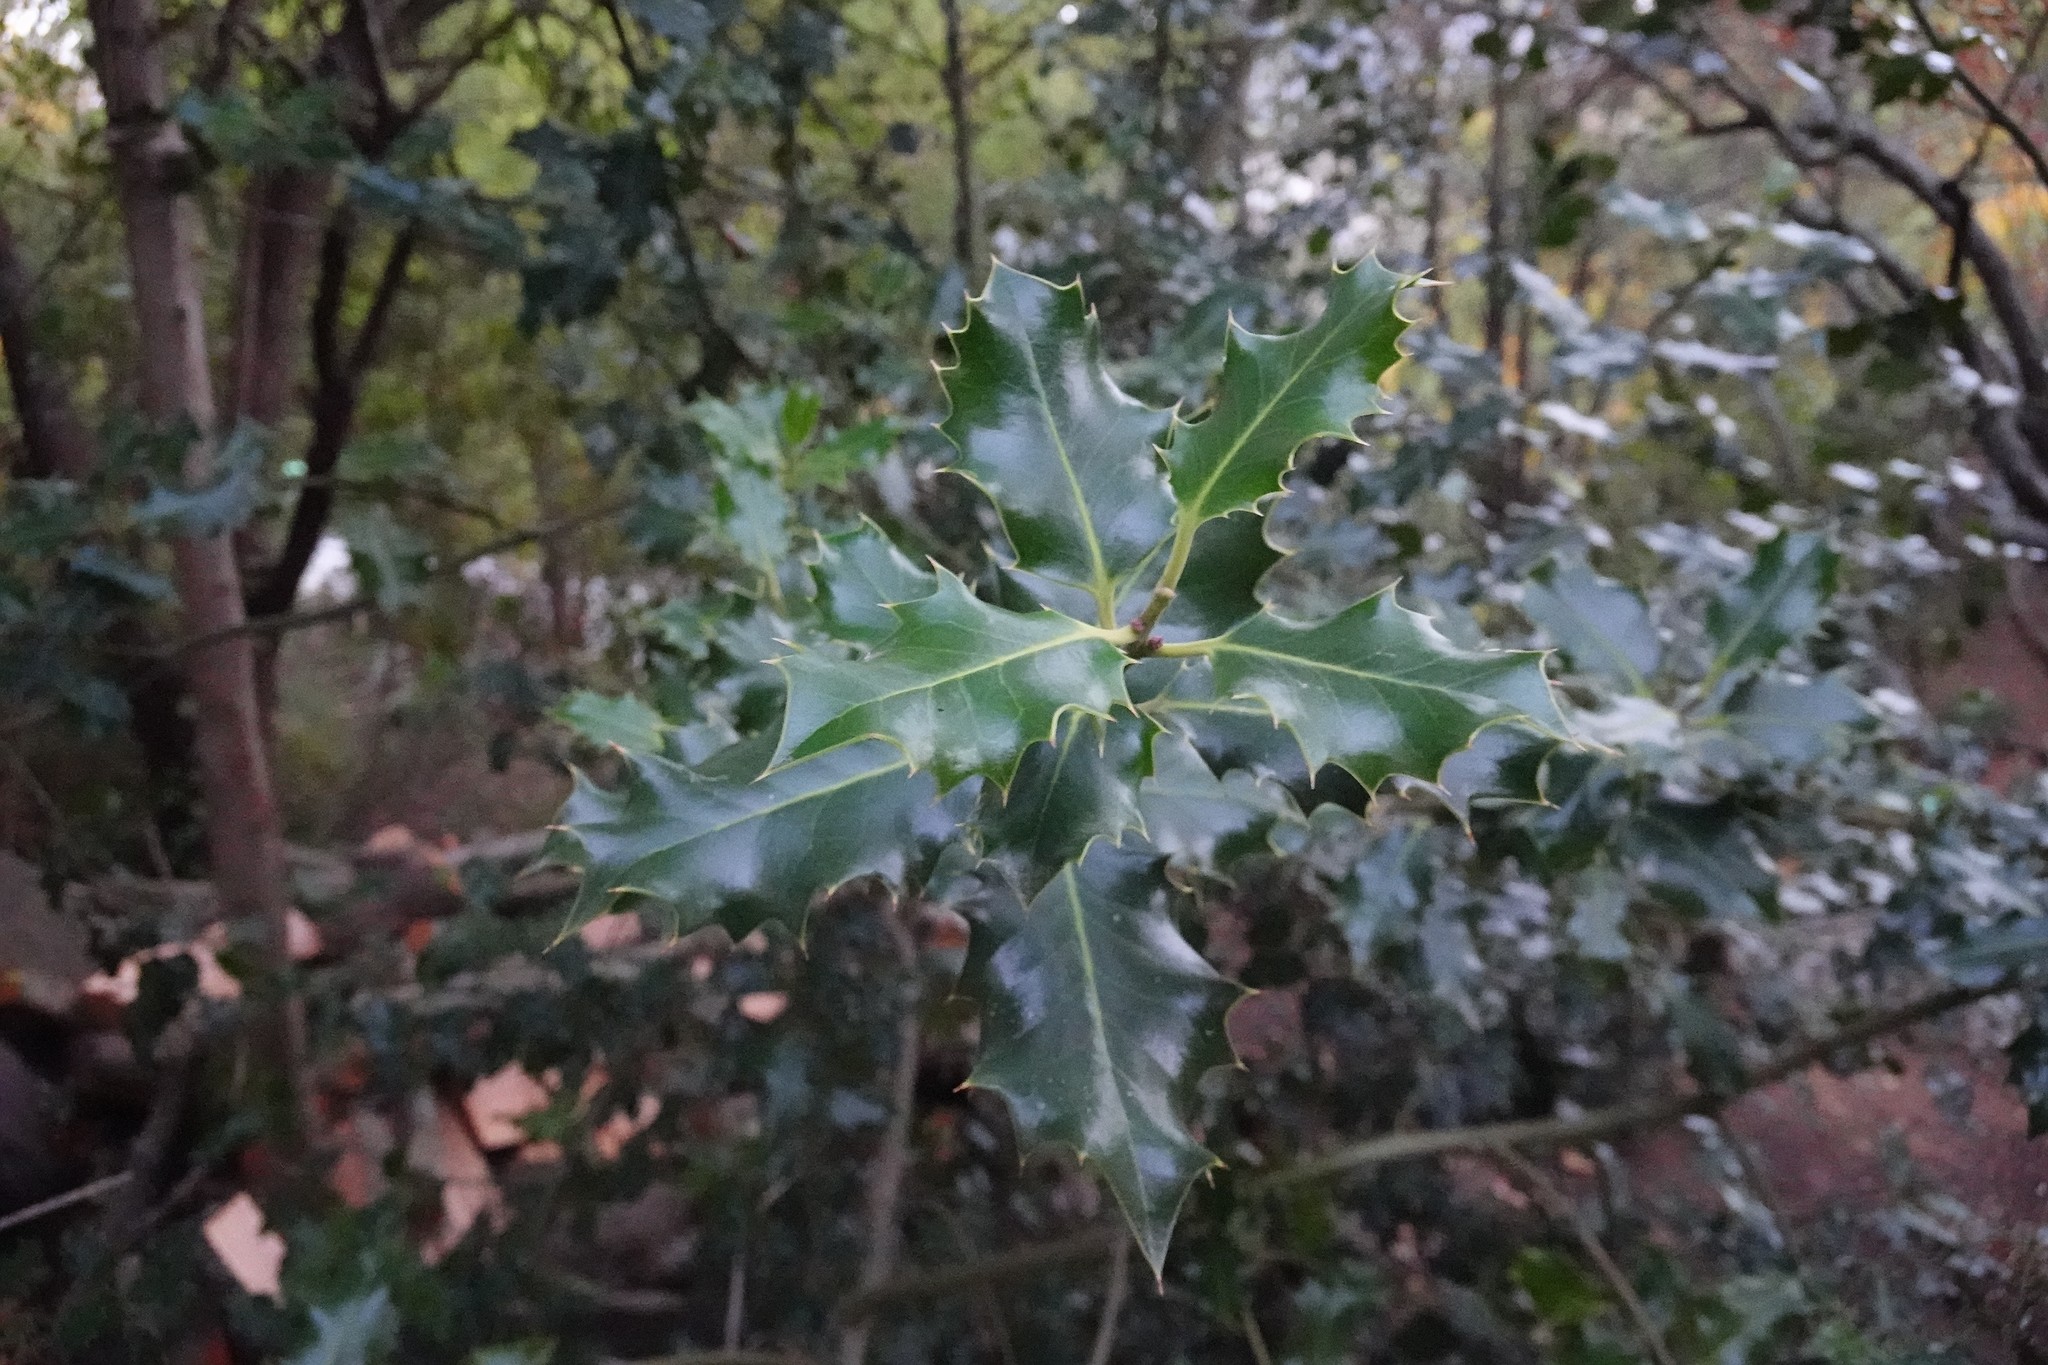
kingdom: Plantae
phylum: Tracheophyta
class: Magnoliopsida
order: Aquifoliales
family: Aquifoliaceae
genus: Ilex
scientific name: Ilex aquifolium
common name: English holly
